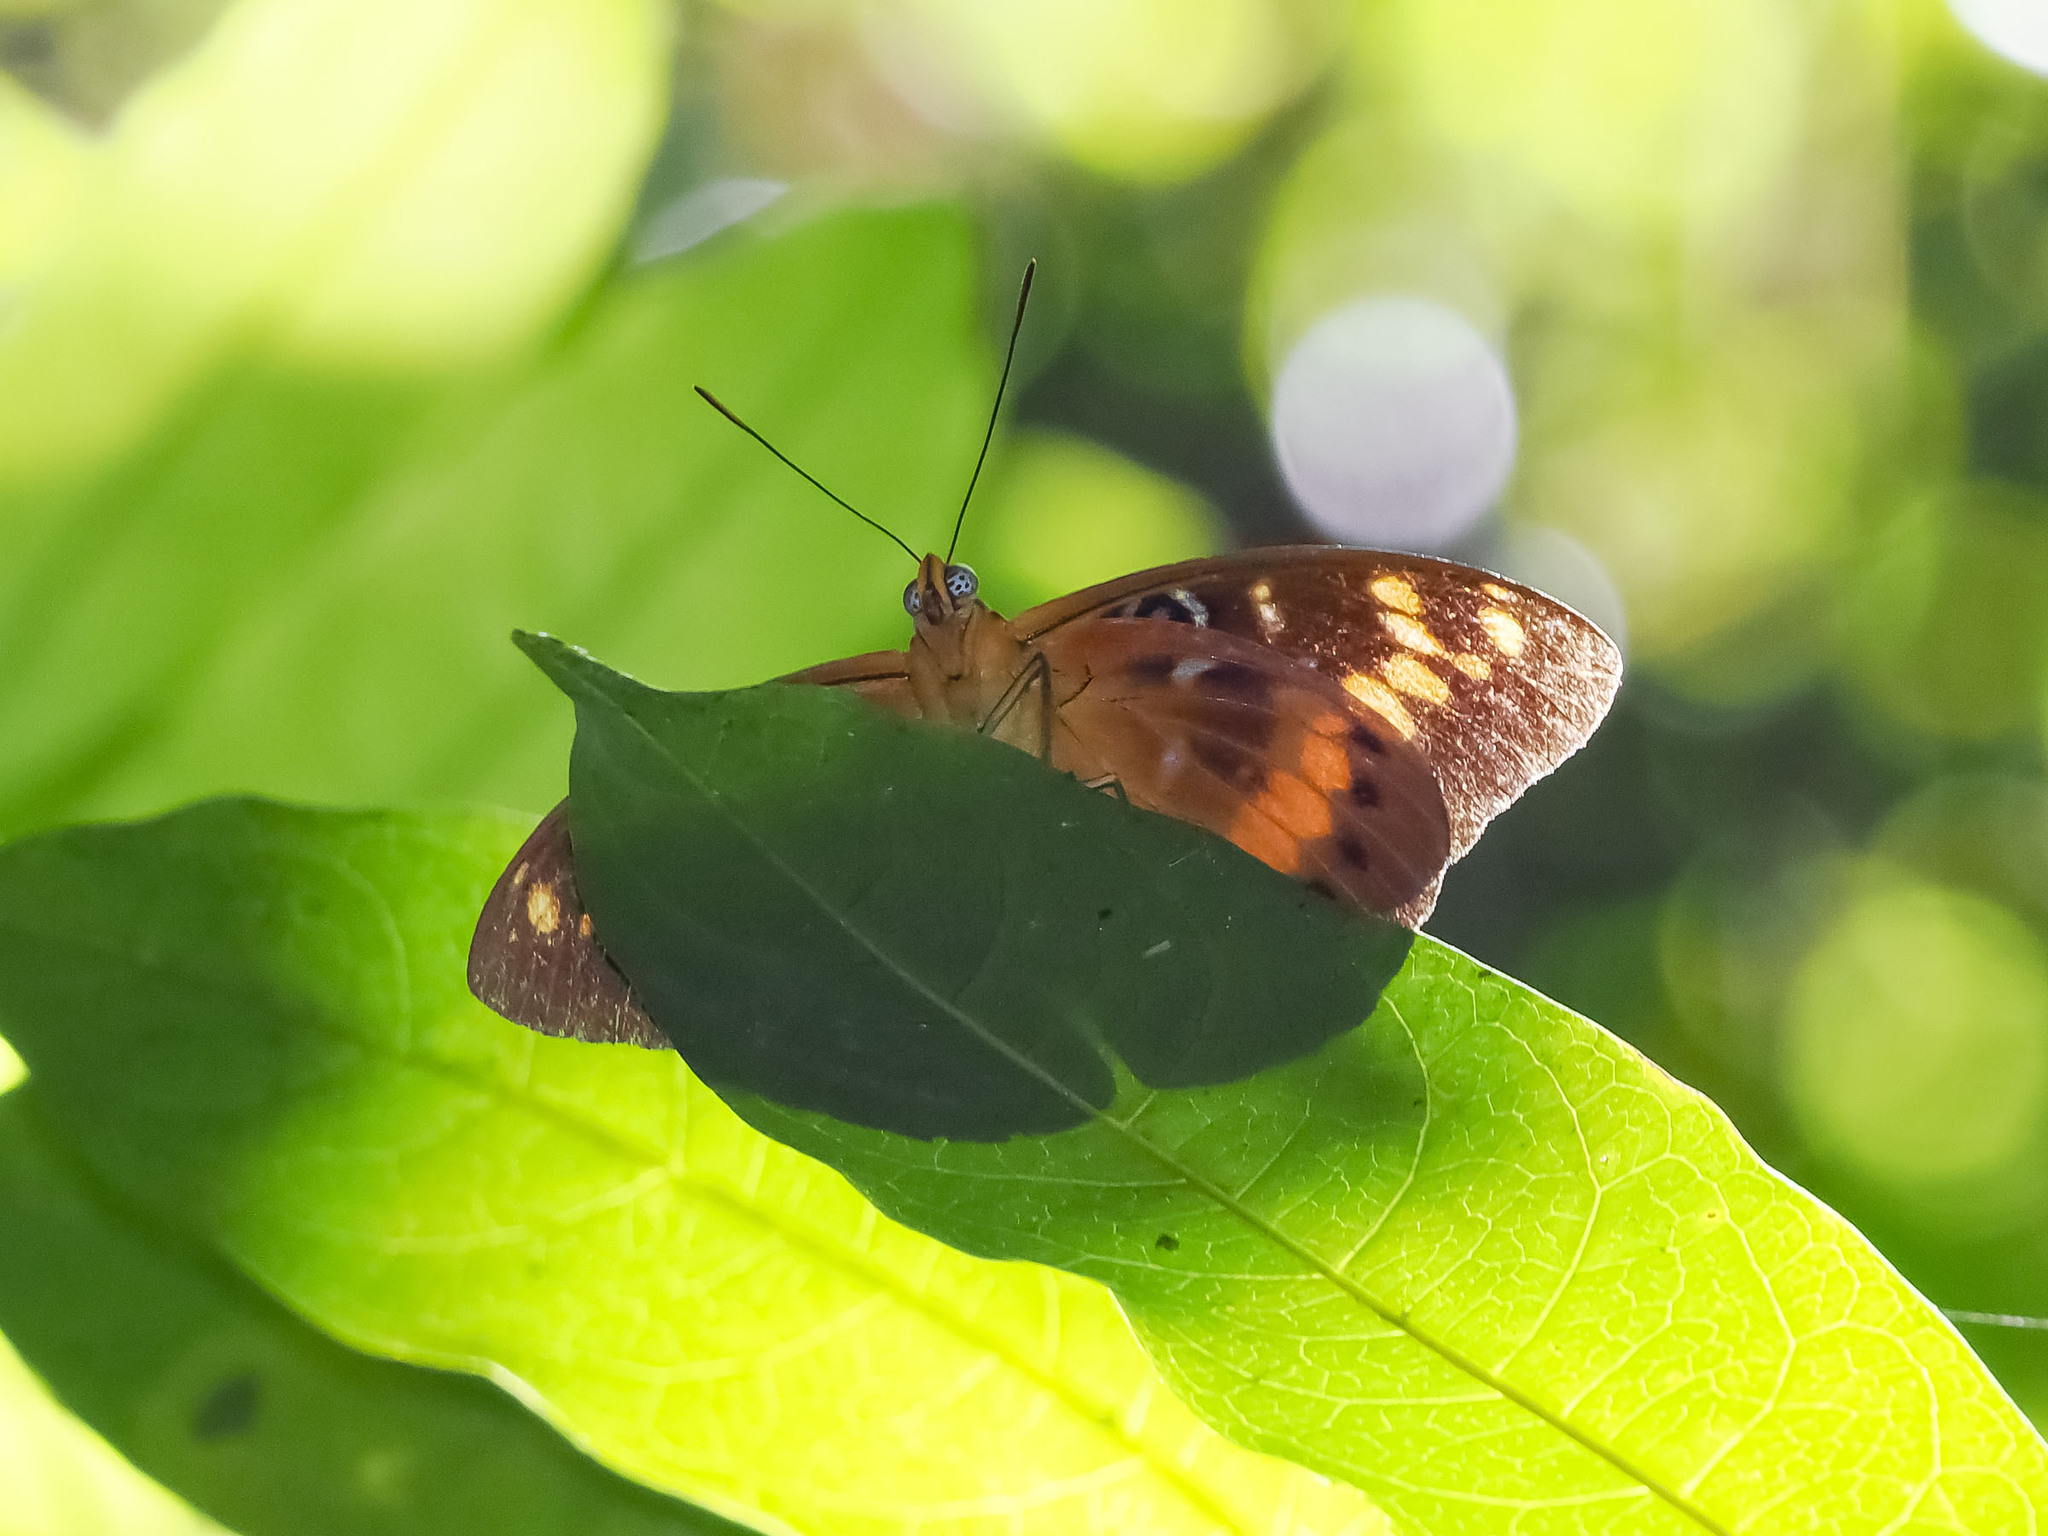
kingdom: Animalia
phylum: Arthropoda
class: Insecta
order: Lepidoptera
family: Nymphalidae
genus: Lexias
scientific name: Lexias aeropa
